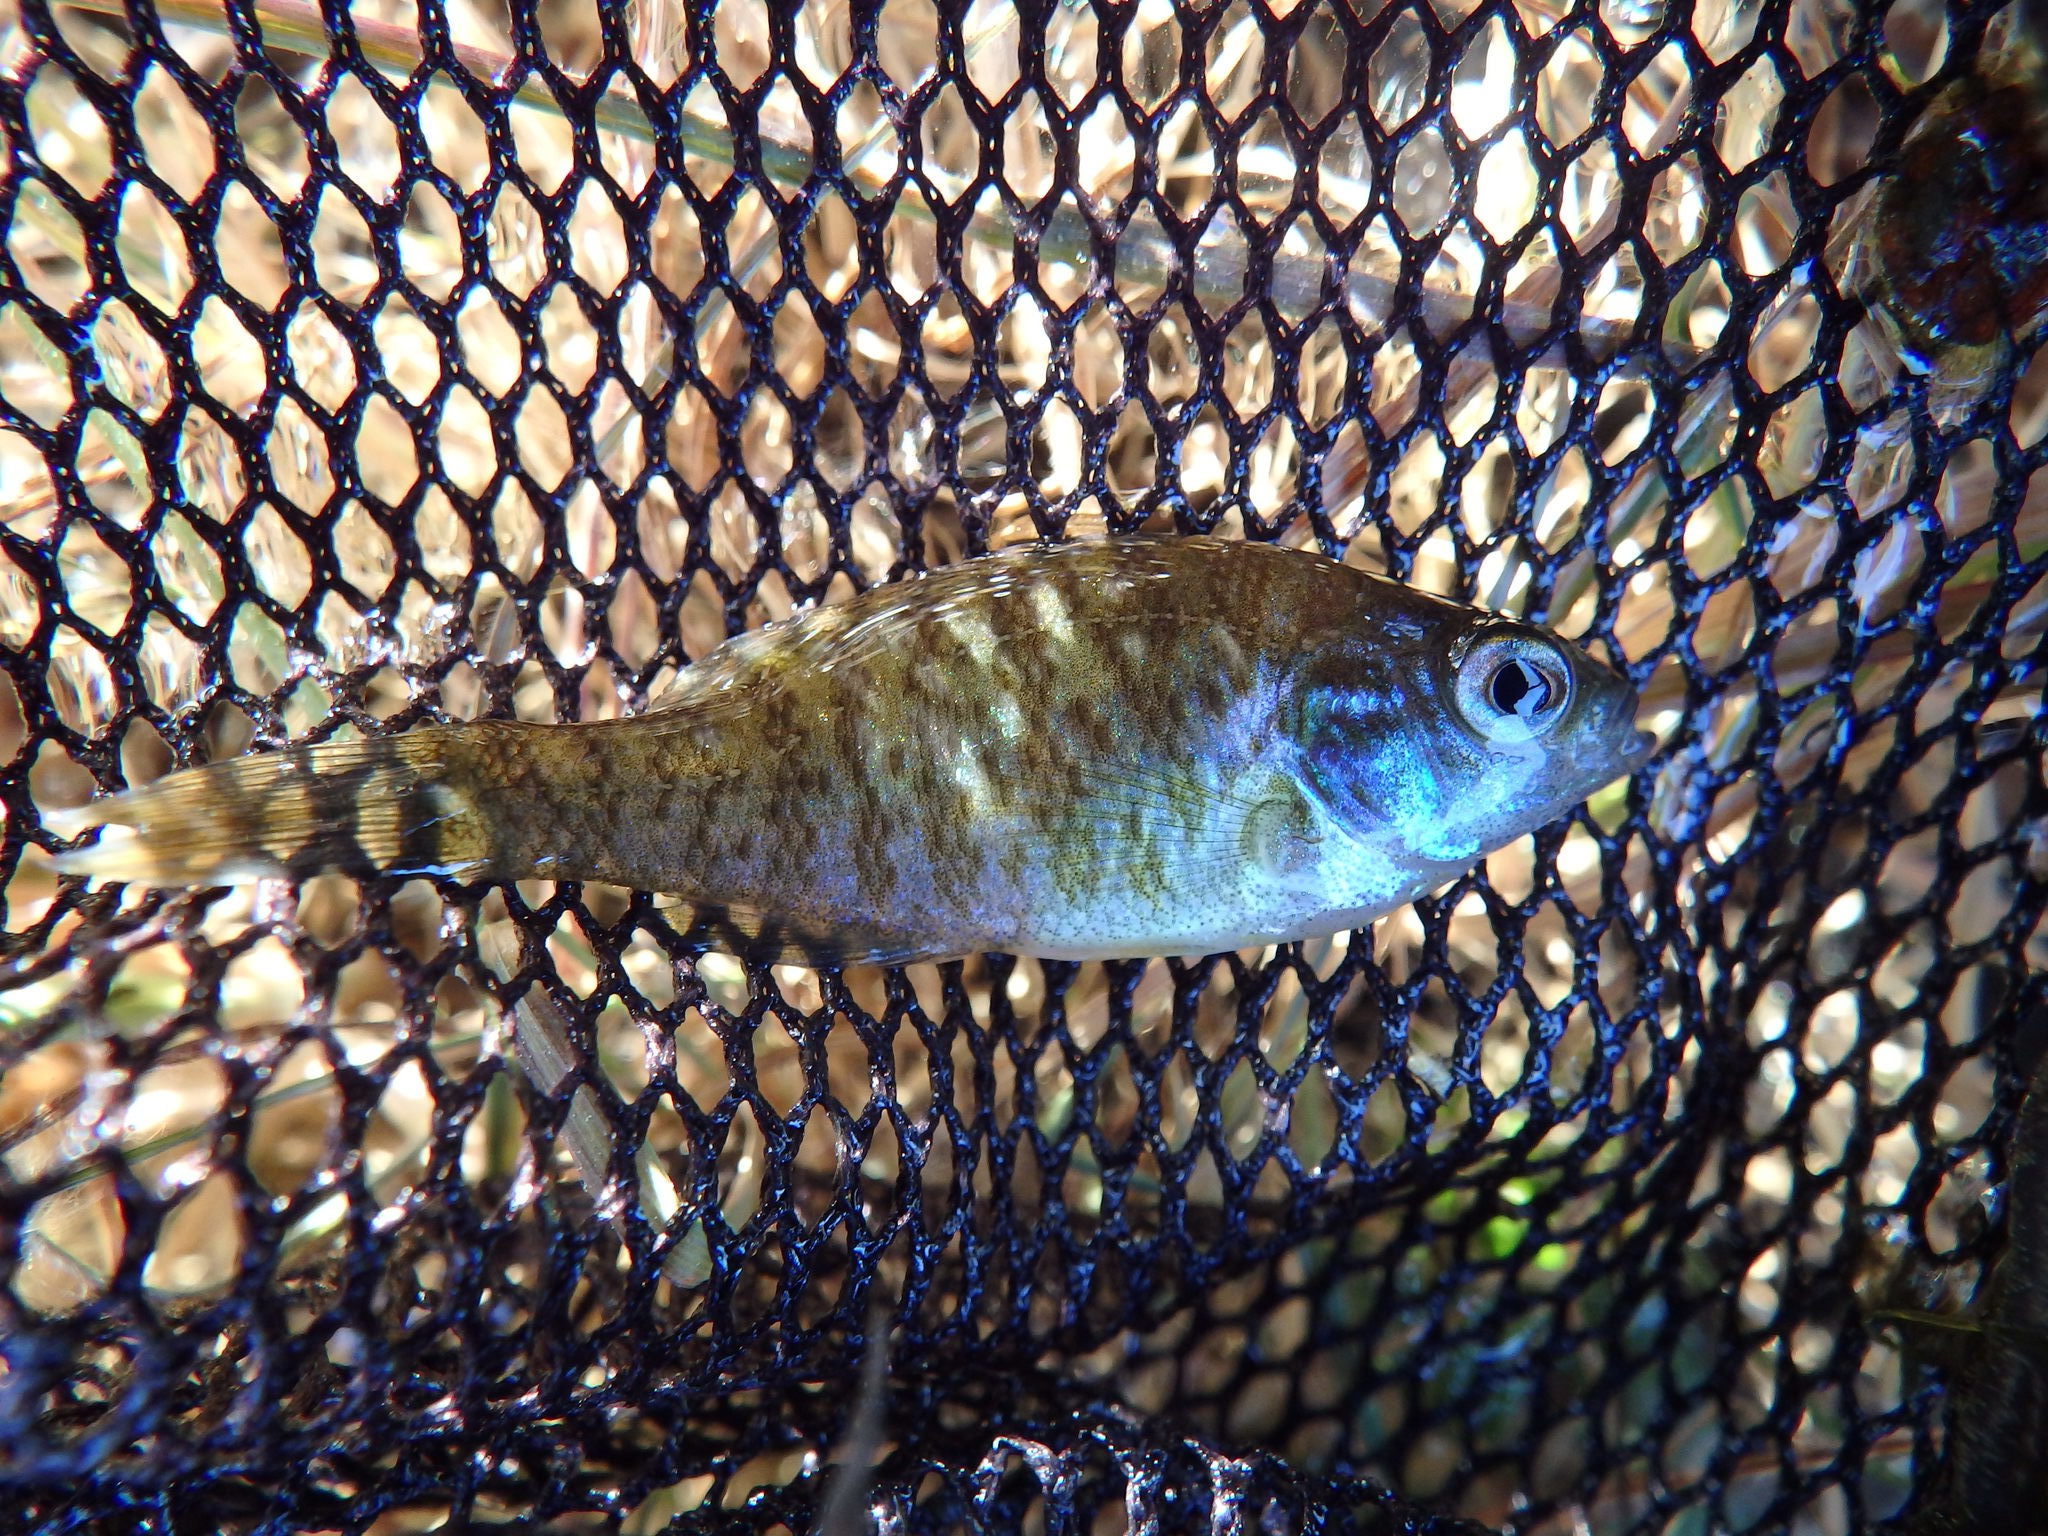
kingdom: Animalia
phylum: Chordata
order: Perciformes
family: Centrarchidae
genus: Lepomis
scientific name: Lepomis gibbosus
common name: Pumpkinseed
